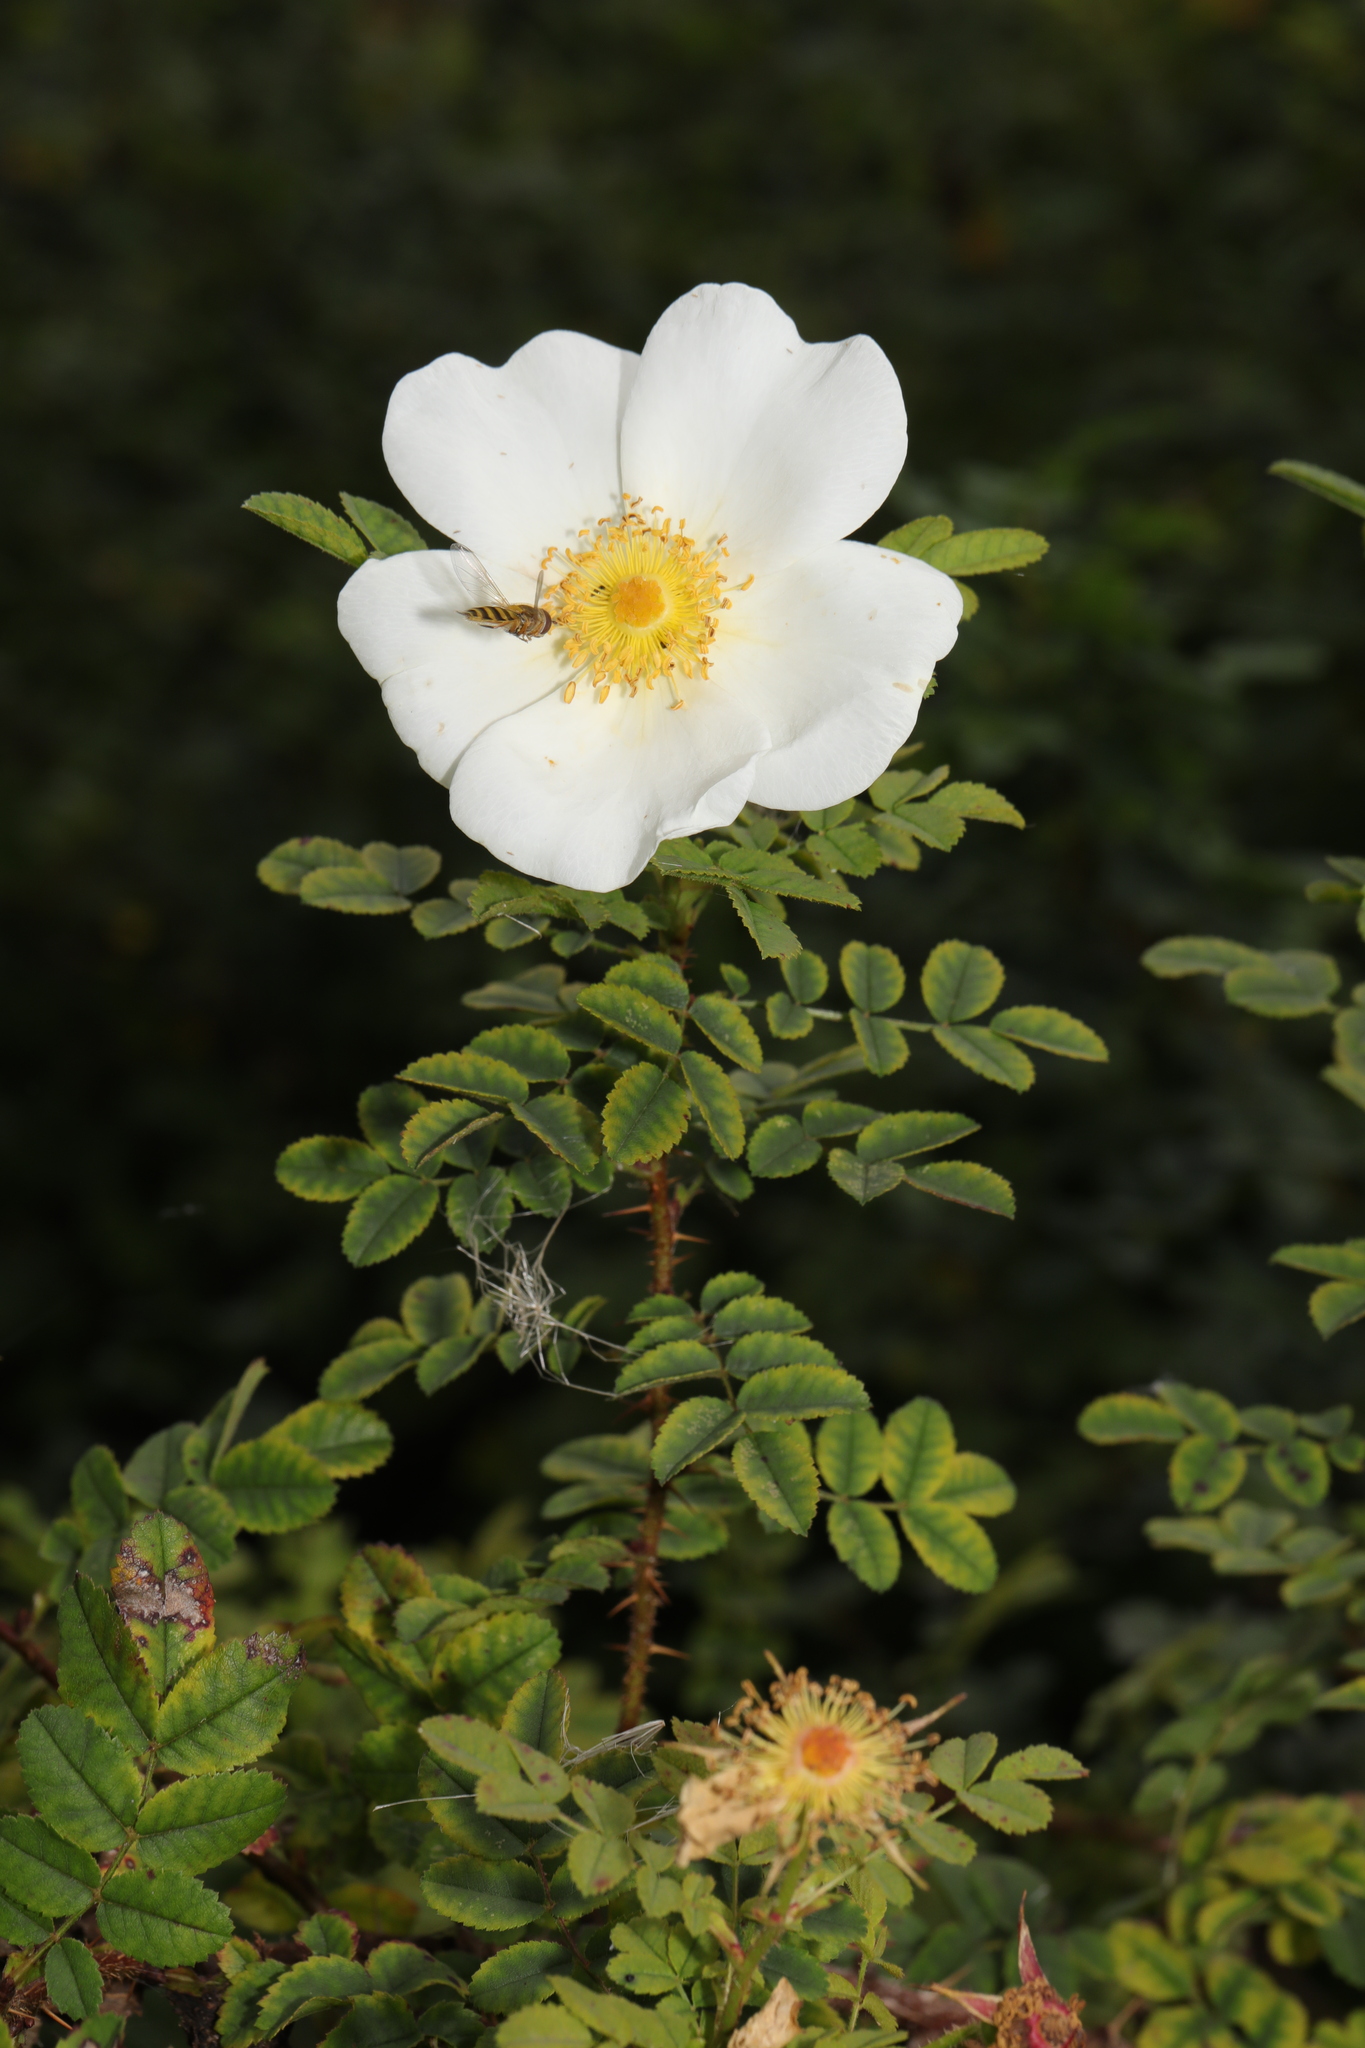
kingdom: Plantae
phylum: Tracheophyta
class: Magnoliopsida
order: Rosales
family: Rosaceae
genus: Rosa
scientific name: Rosa spinosissima
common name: Burnet rose
